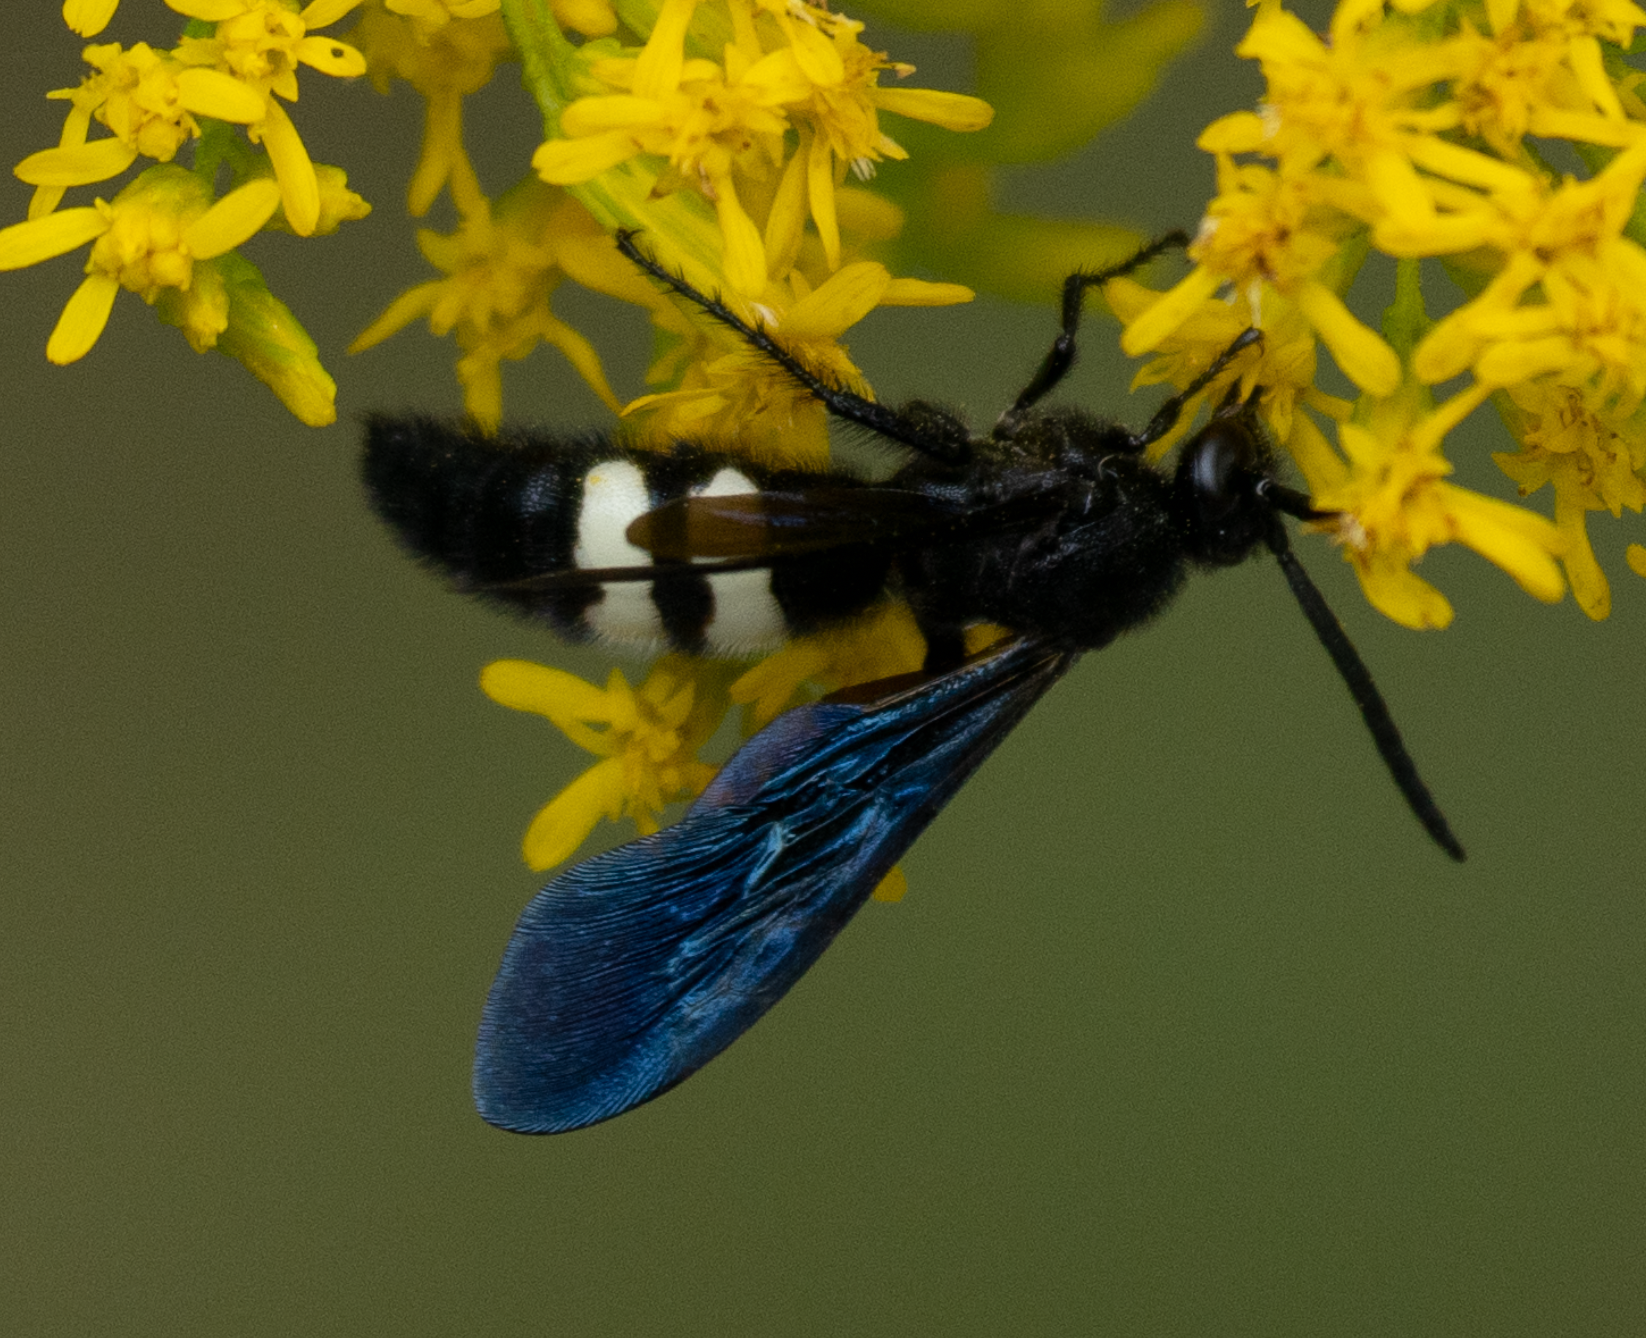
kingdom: Animalia
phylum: Arthropoda
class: Insecta
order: Hymenoptera
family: Scoliidae
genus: Scolia
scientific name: Scolia bicincta
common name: Double-banded scoliid wasp
